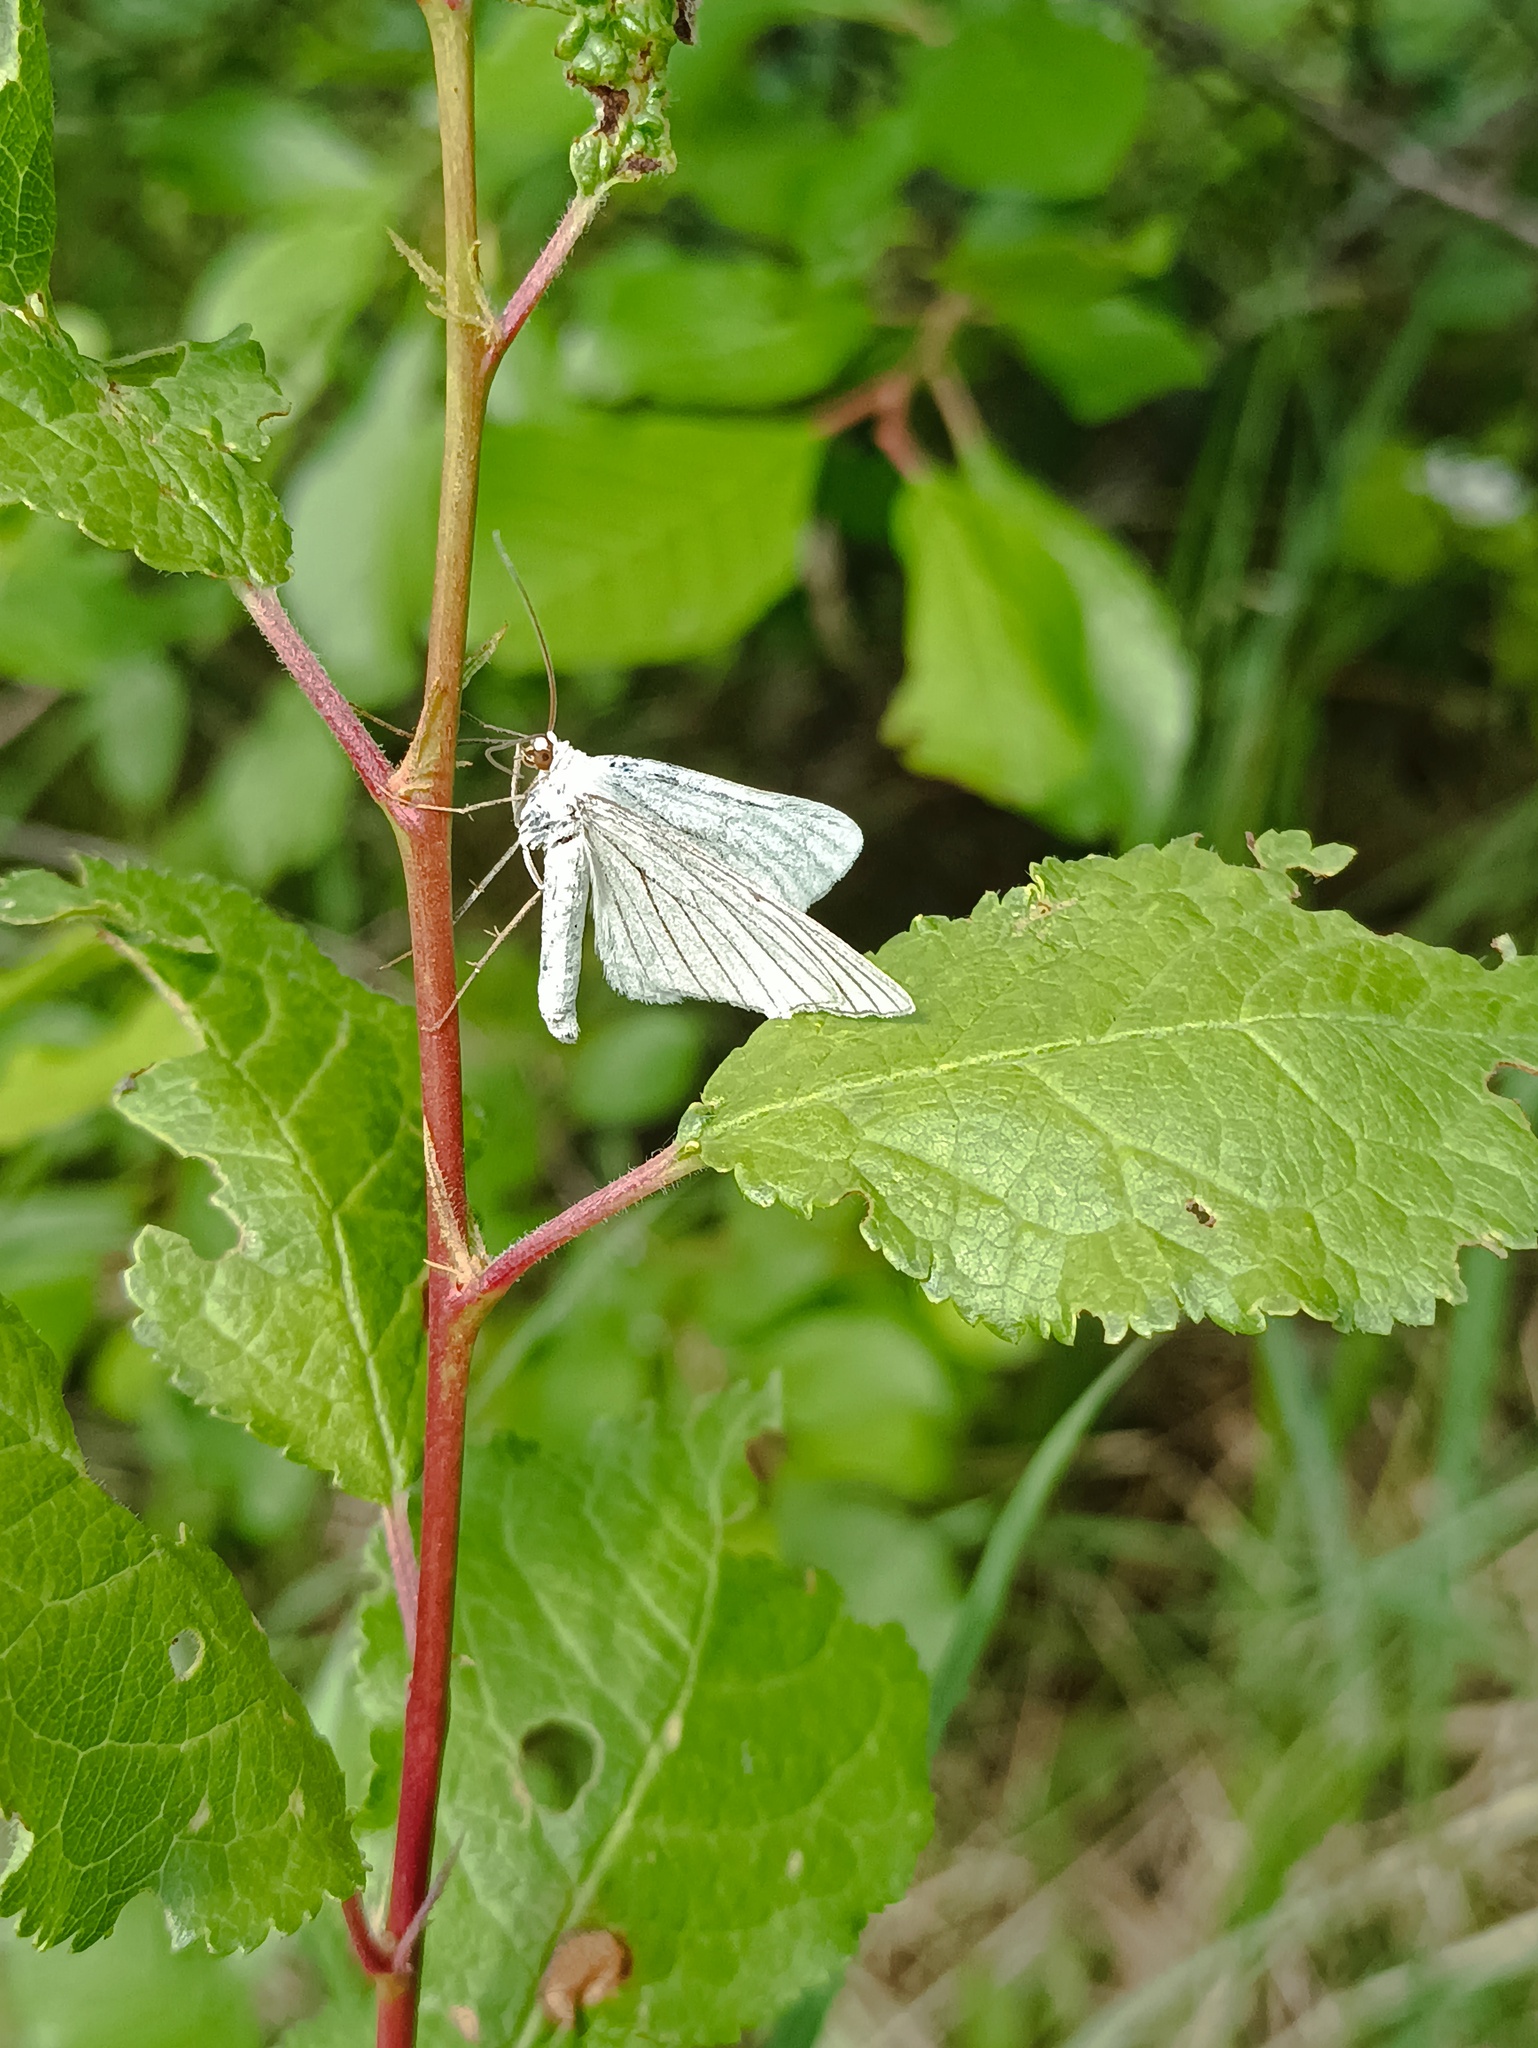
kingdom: Animalia
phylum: Arthropoda
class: Insecta
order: Lepidoptera
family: Geometridae
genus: Siona
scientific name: Siona lineata
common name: Black-veined moth
